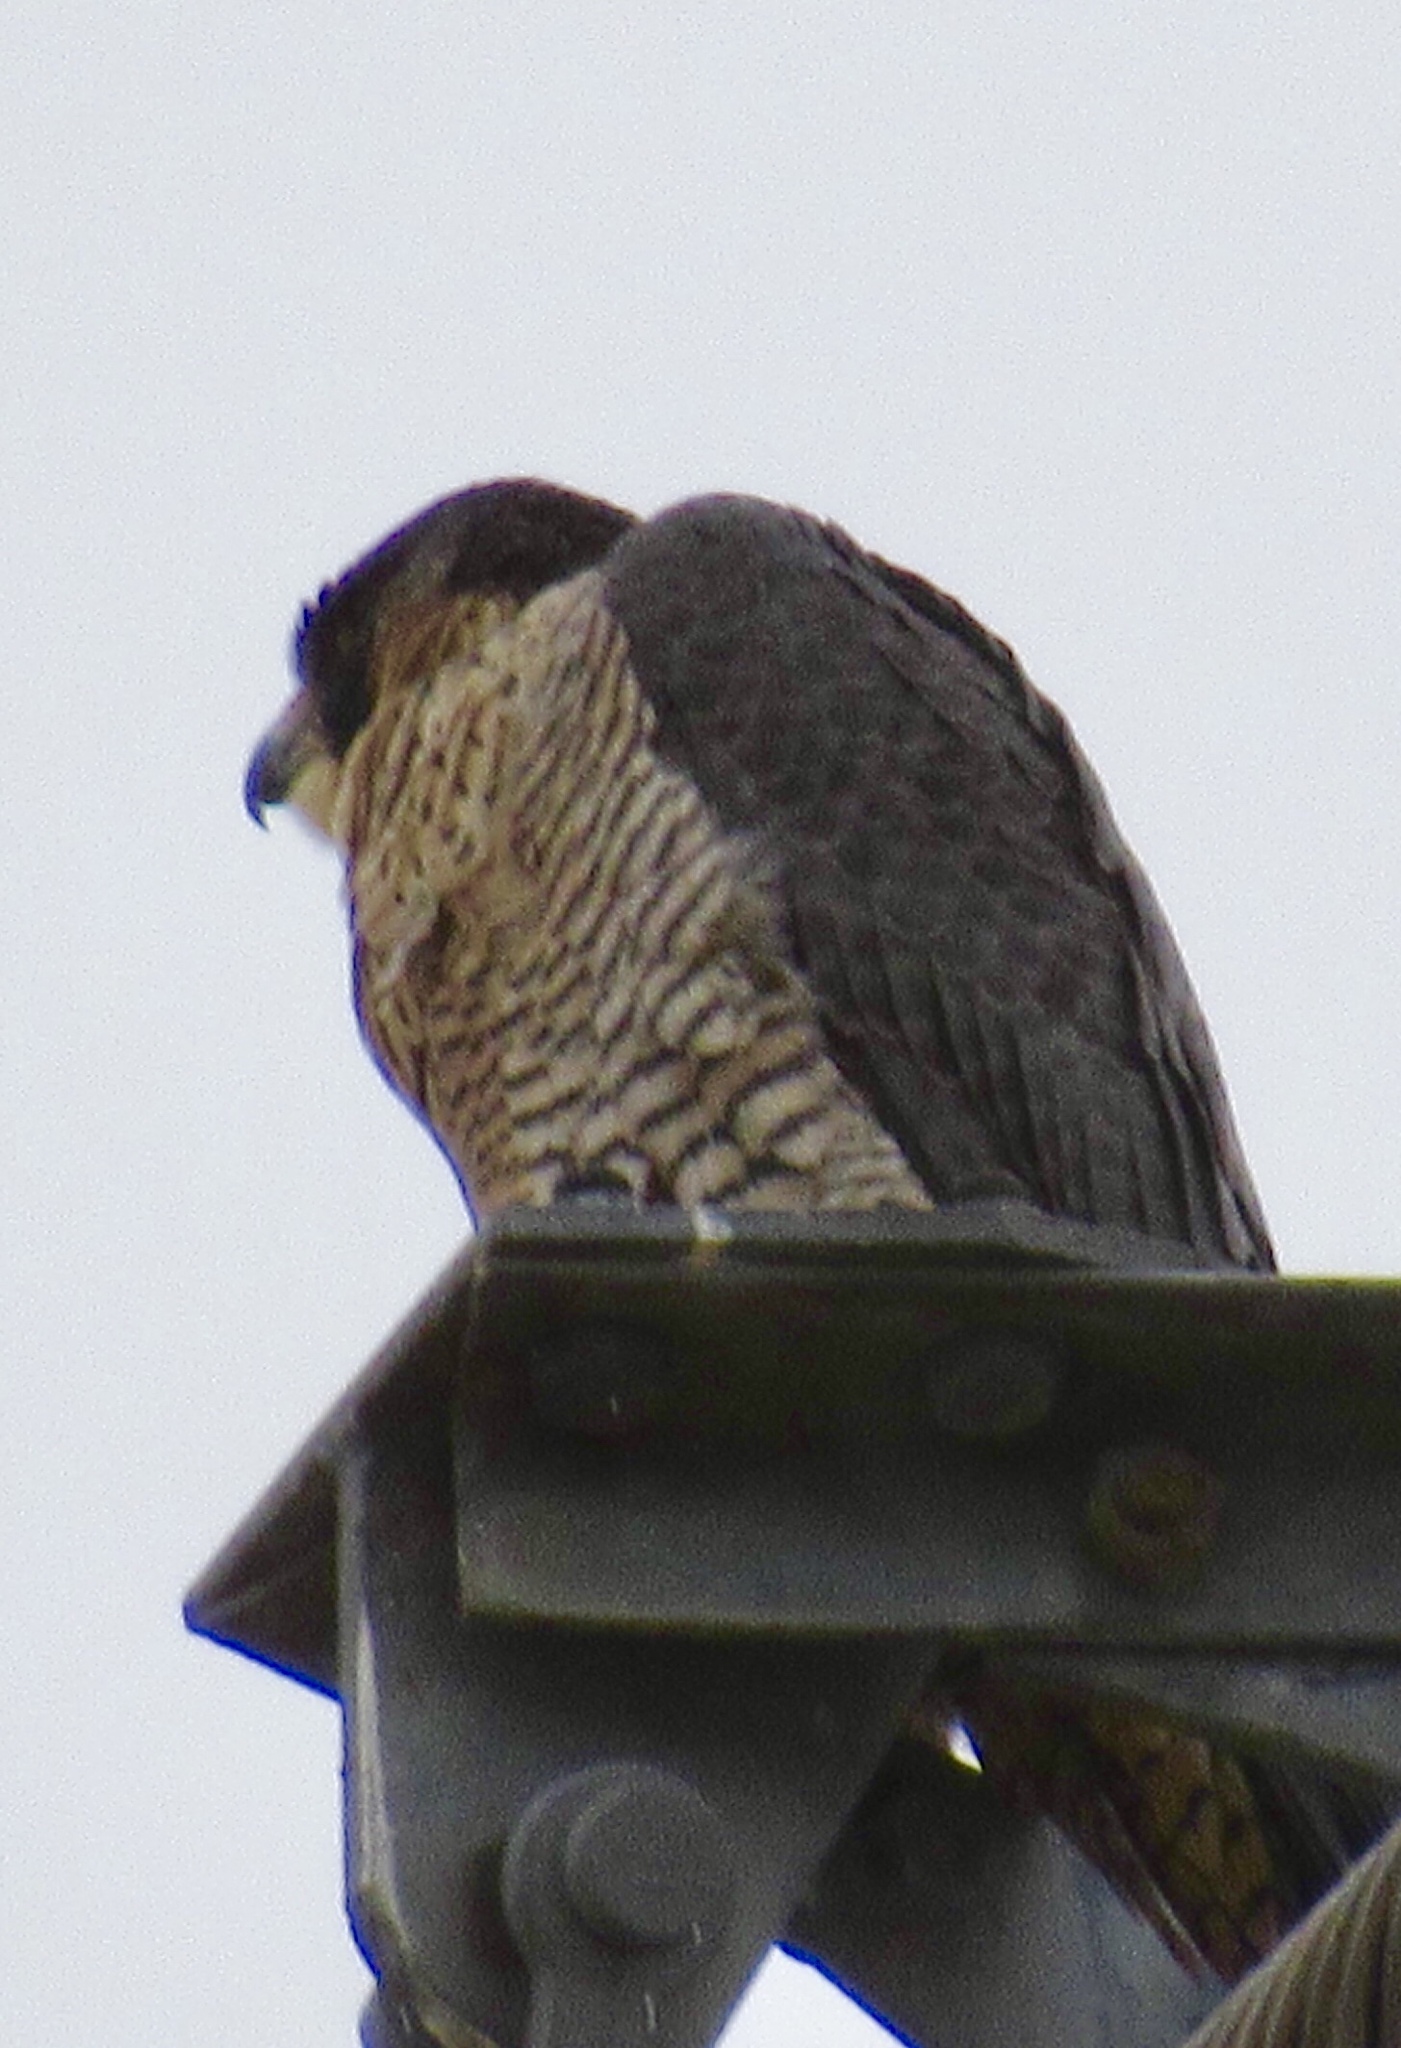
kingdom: Animalia
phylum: Chordata
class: Aves
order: Falconiformes
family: Falconidae
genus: Falco
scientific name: Falco peregrinus
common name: Peregrine falcon
